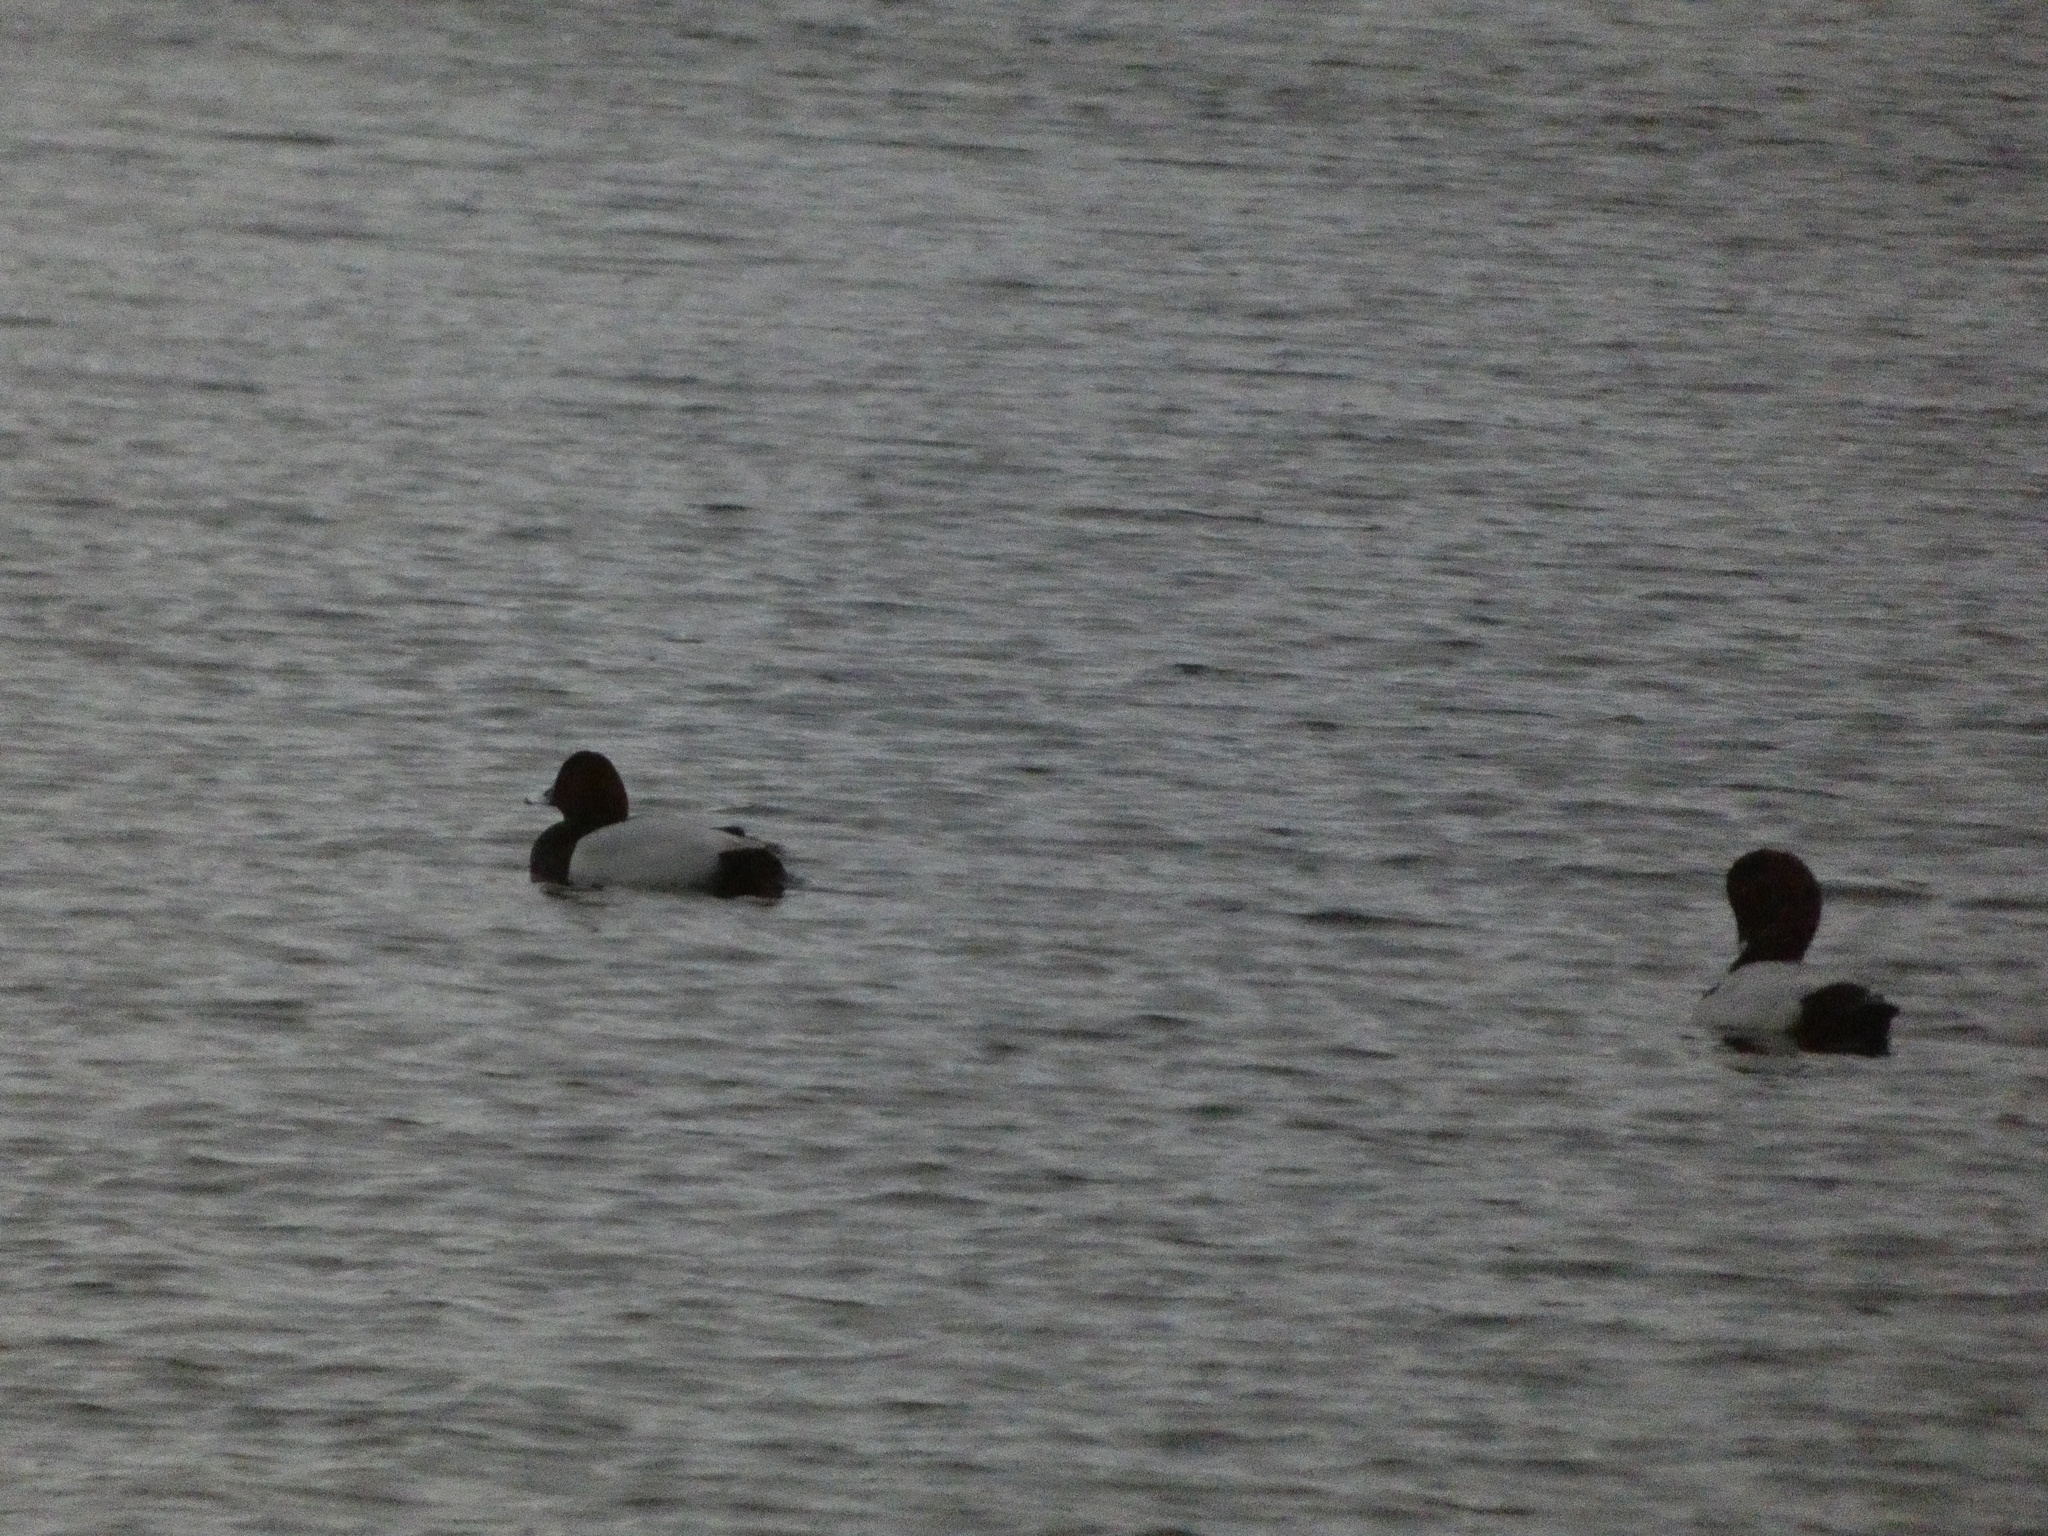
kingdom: Animalia
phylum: Chordata
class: Aves
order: Anseriformes
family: Anatidae
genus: Aythya
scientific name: Aythya ferina
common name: Common pochard
